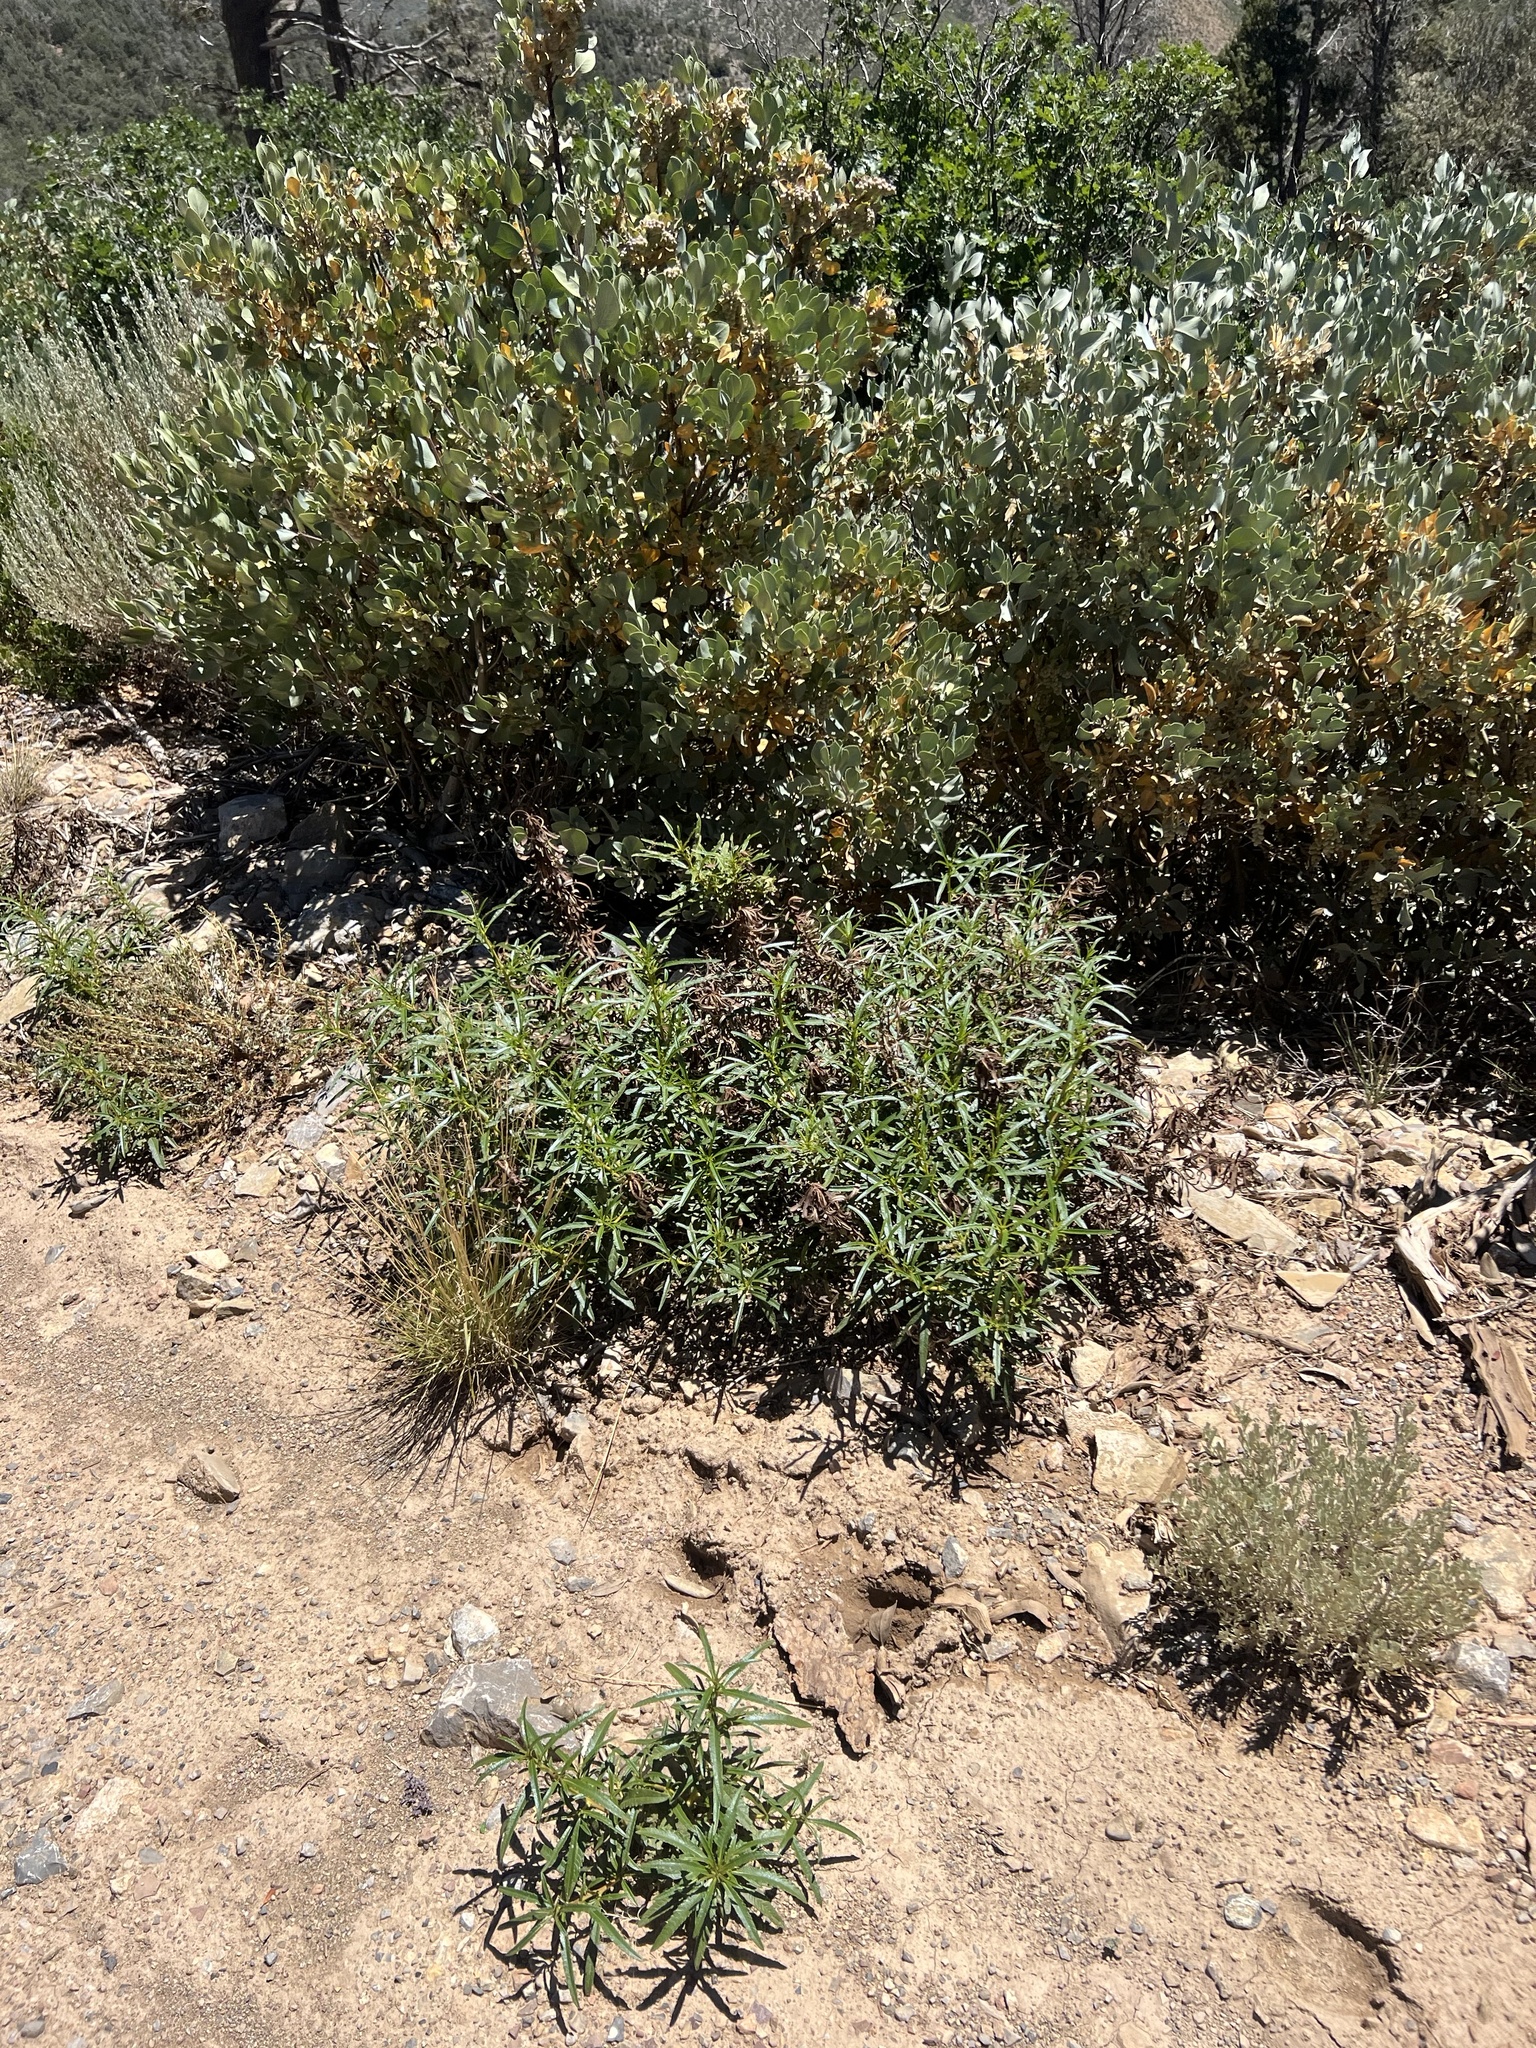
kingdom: Plantae
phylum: Tracheophyta
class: Magnoliopsida
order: Boraginales
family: Namaceae
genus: Eriodictyon
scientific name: Eriodictyon angustifolium
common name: Narrow-leaf yerba santa
